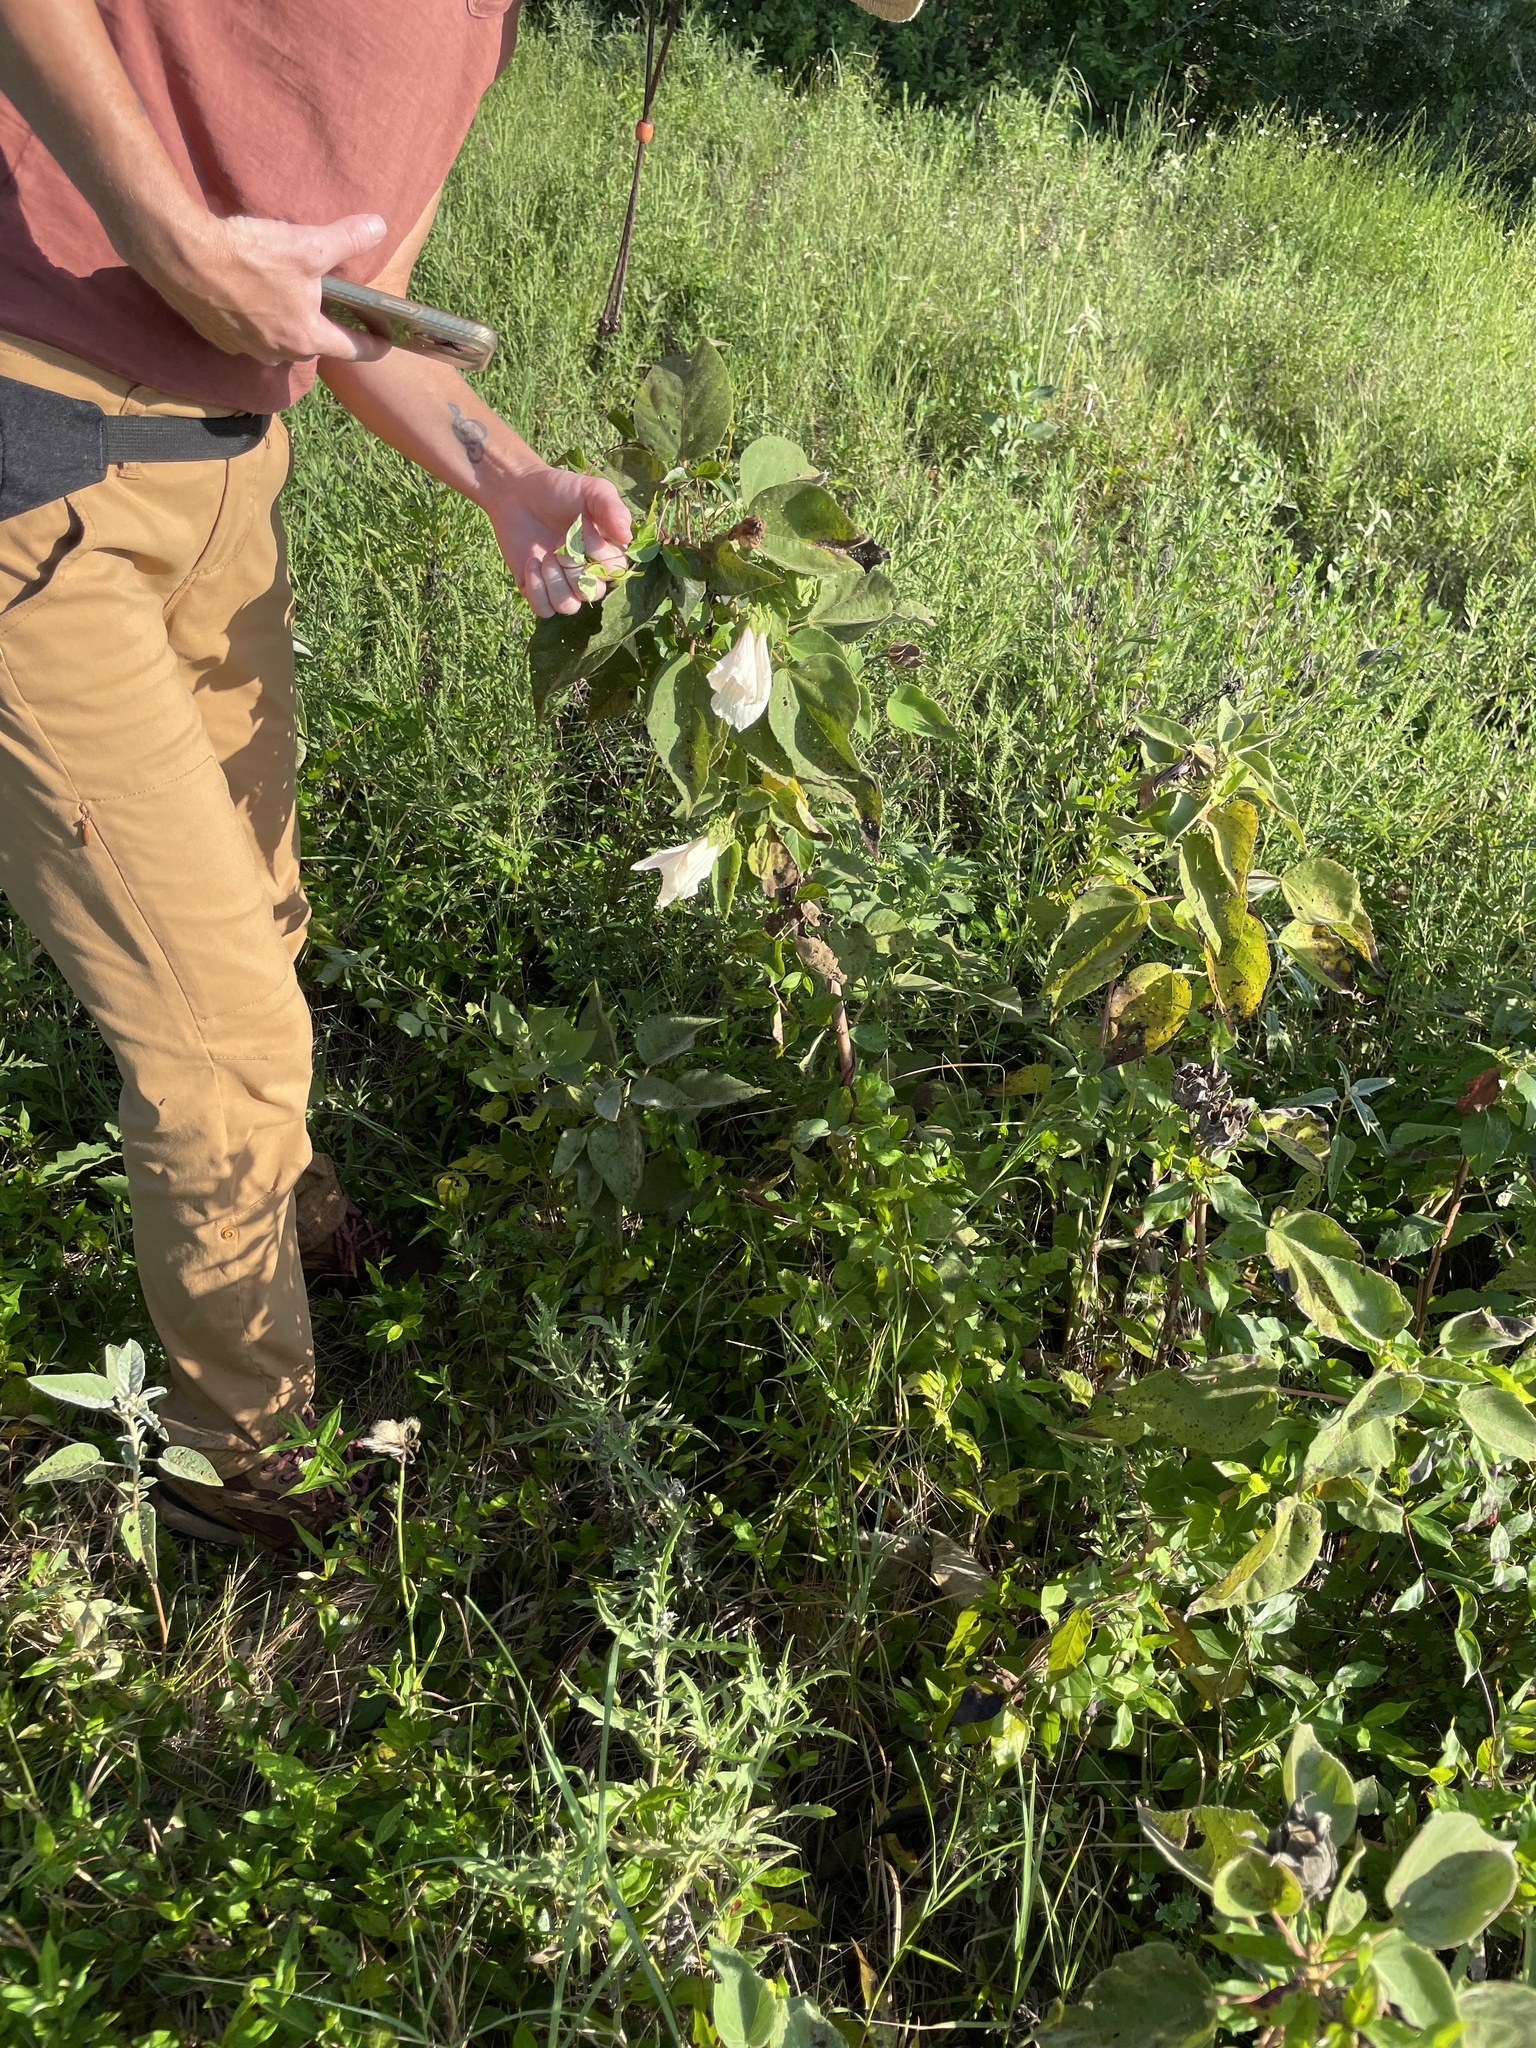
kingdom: Plantae
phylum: Tracheophyta
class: Magnoliopsida
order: Malvales
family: Malvaceae
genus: Hibiscus
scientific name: Hibiscus moscheutos
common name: Common rose-mallow
